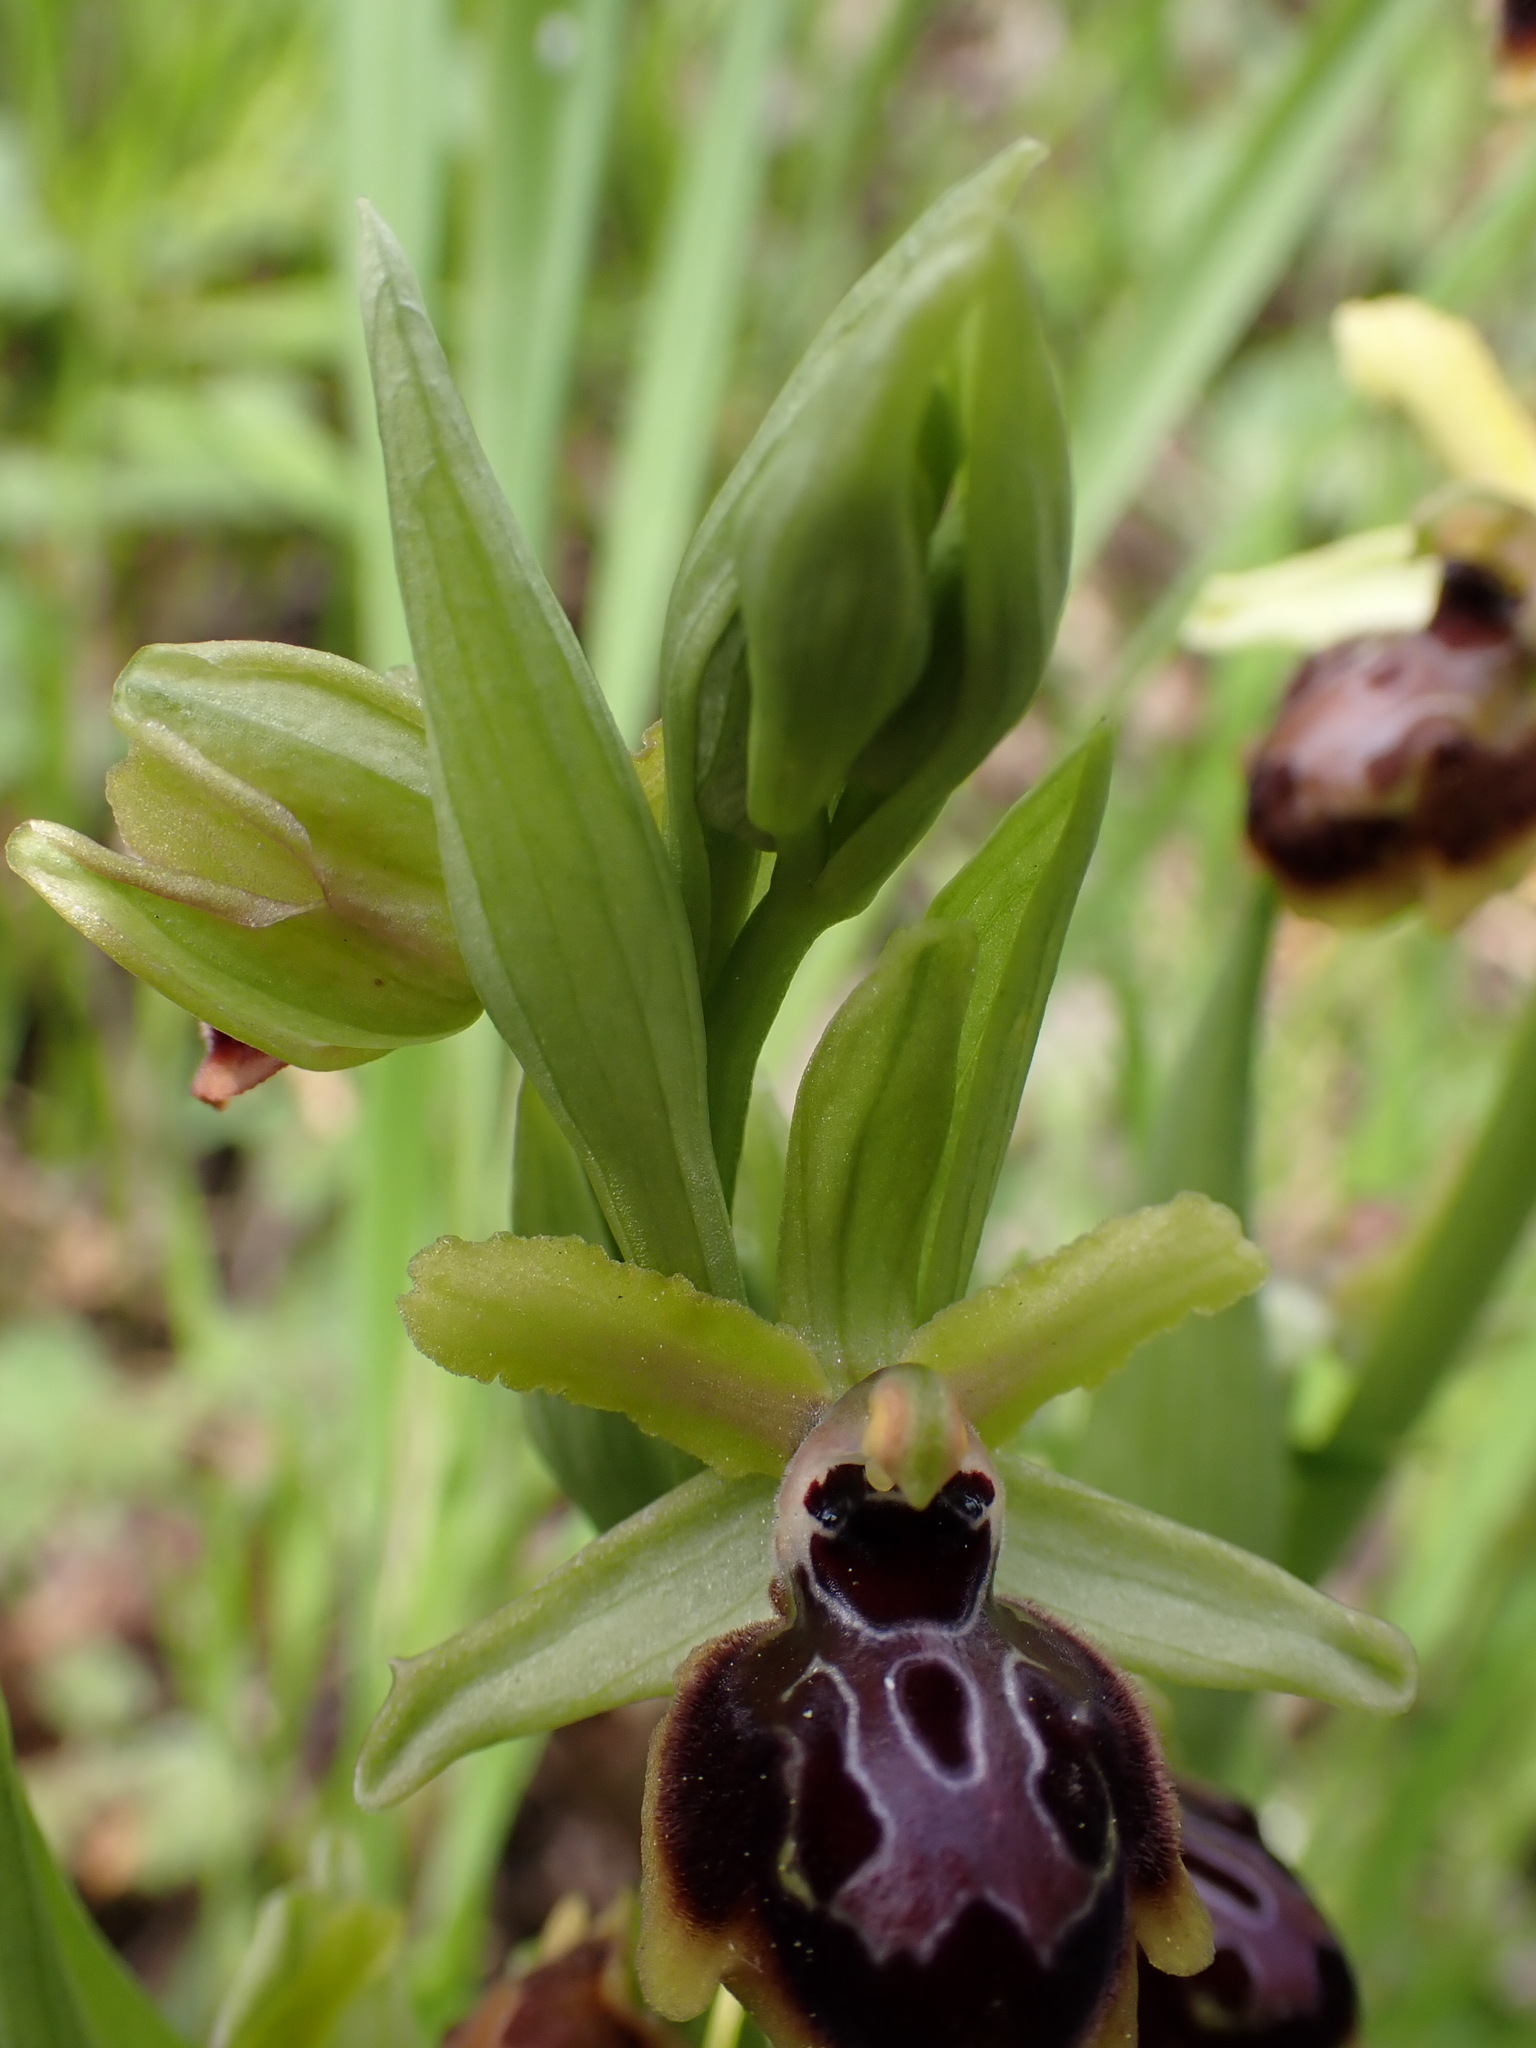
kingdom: Plantae
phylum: Tracheophyta
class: Liliopsida
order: Asparagales
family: Orchidaceae
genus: Ophrys
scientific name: Ophrys sphegodes
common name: Early spider-orchid
